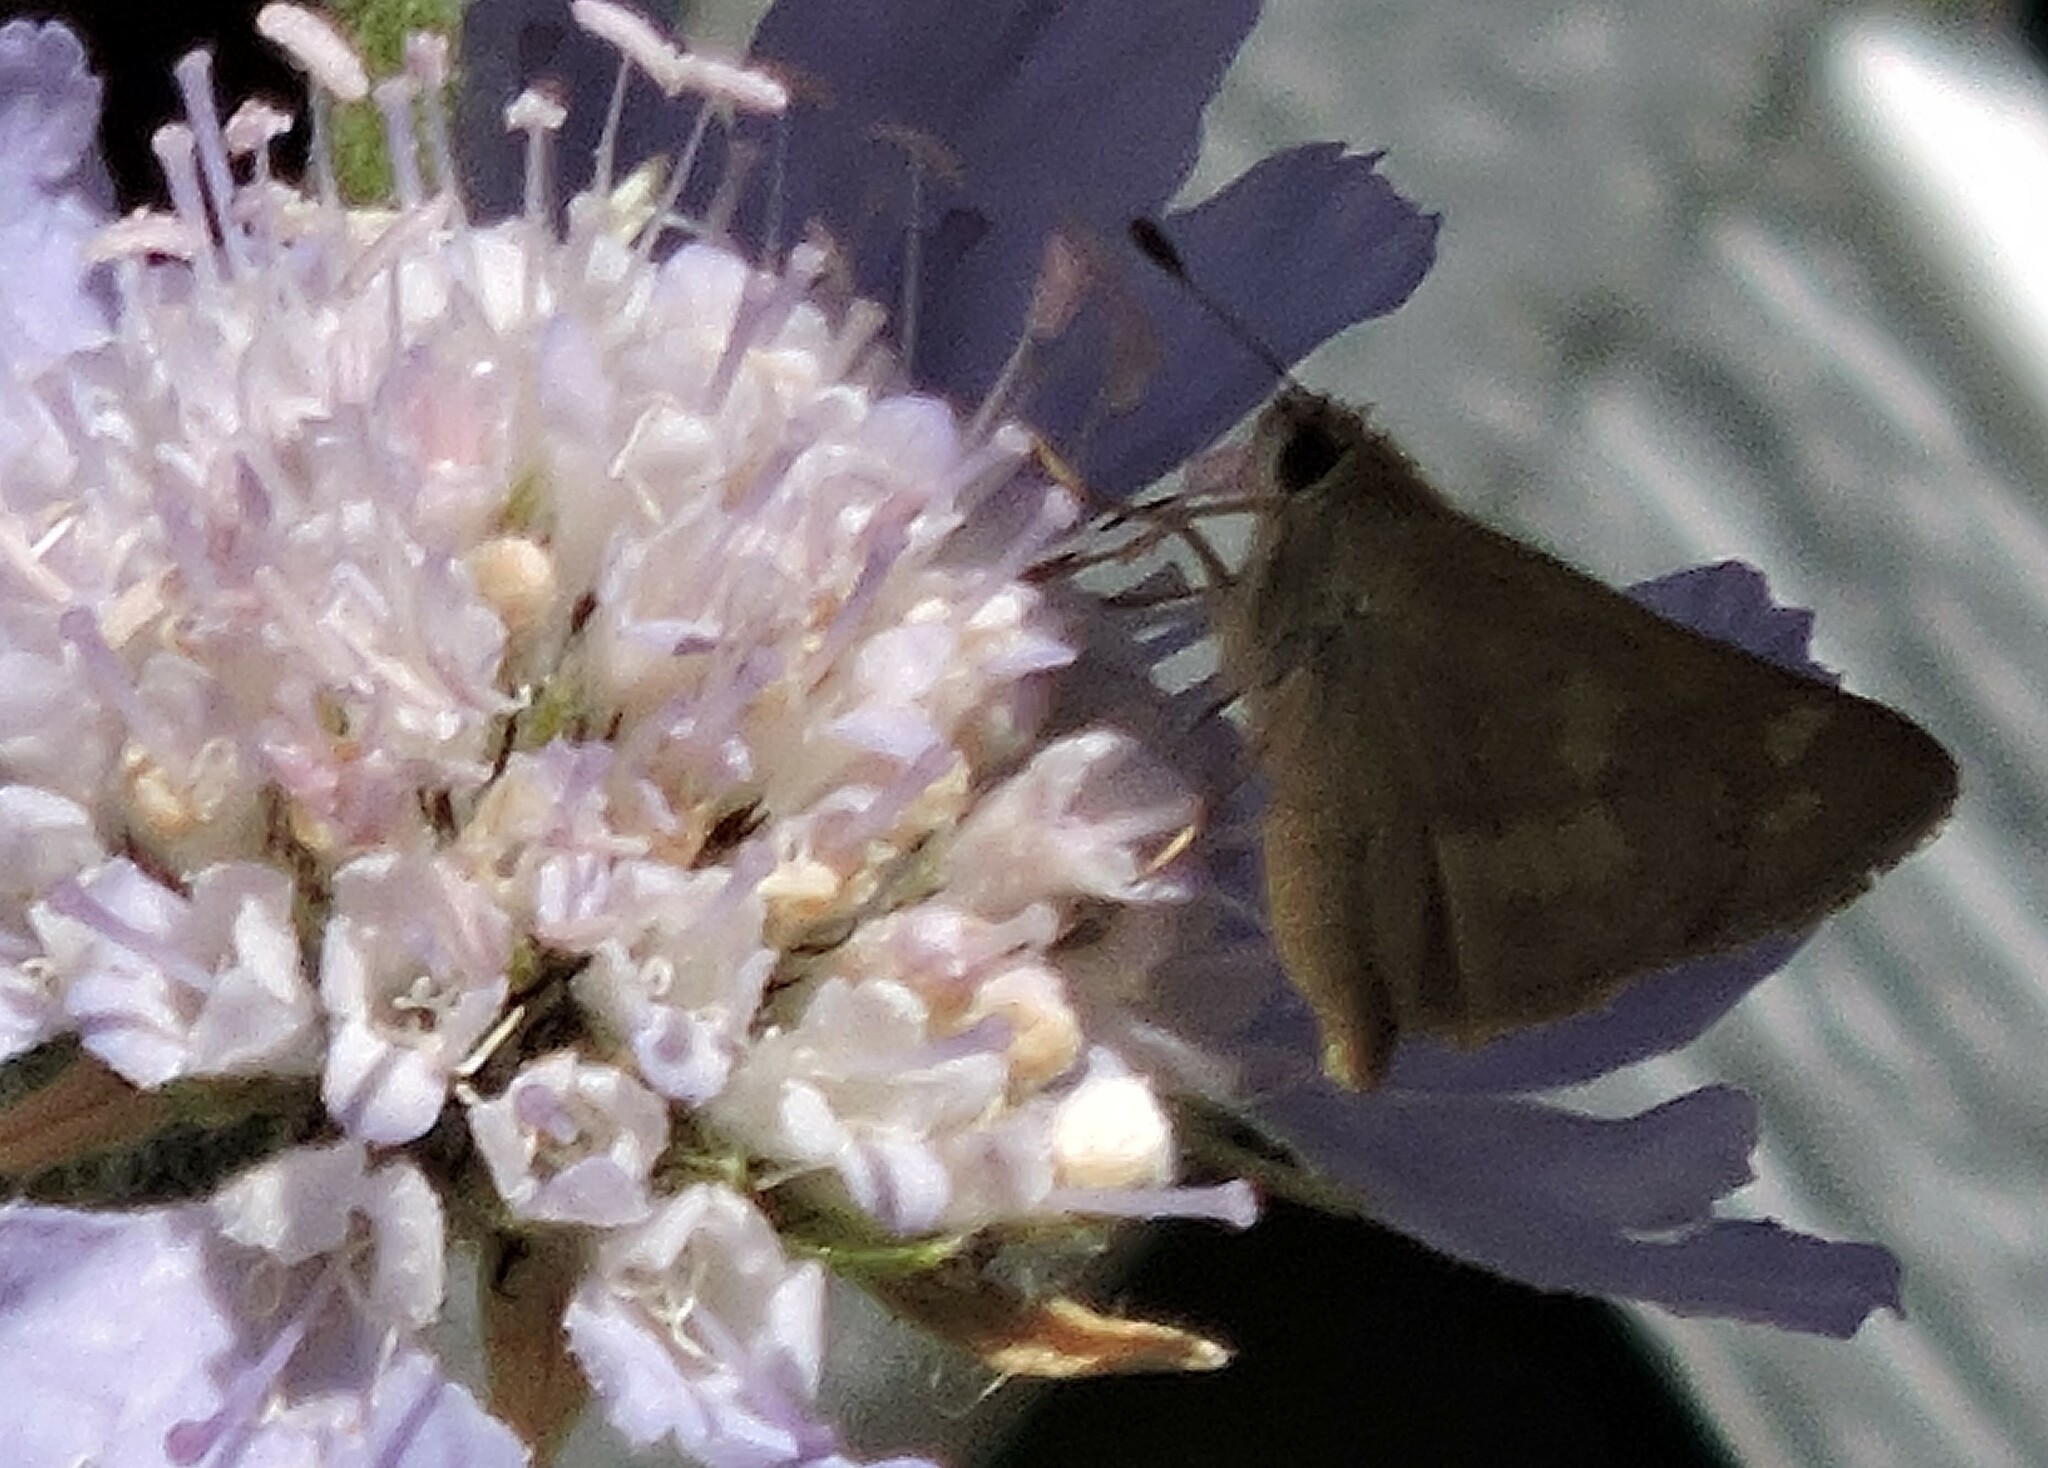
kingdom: Animalia
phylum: Arthropoda
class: Insecta
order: Lepidoptera
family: Hesperiidae
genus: Ochlodes
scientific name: Ochlodes sylvanoides
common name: Woodland skipper
